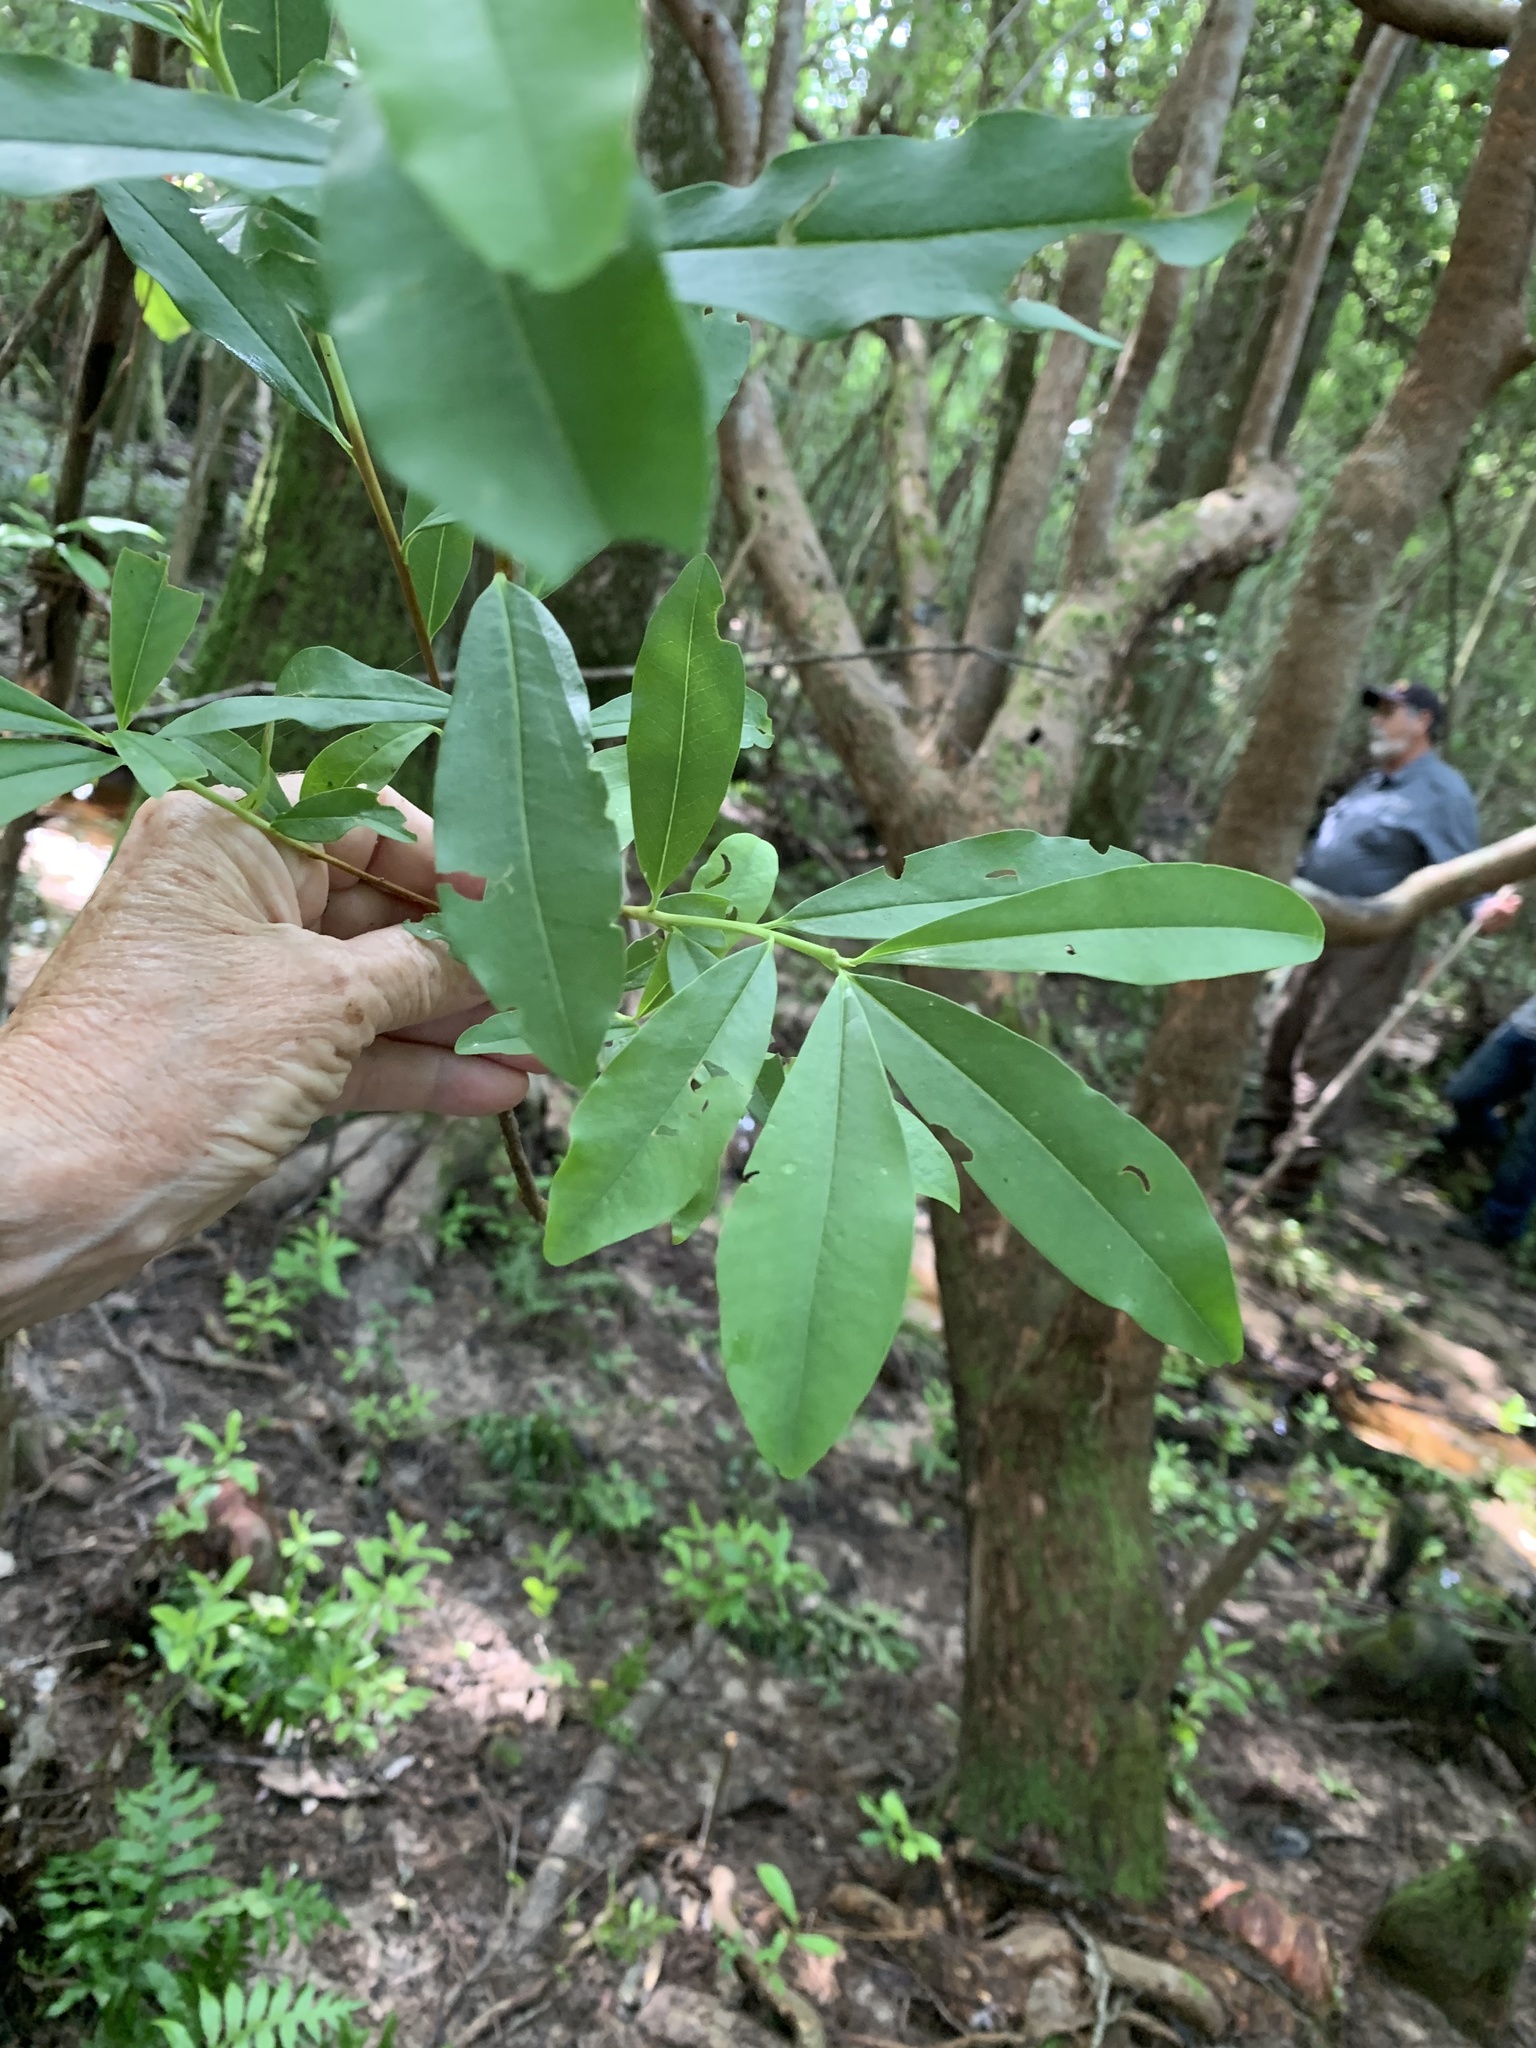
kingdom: Plantae
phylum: Tracheophyta
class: Magnoliopsida
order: Ericales
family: Cyrillaceae
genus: Cyrilla
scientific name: Cyrilla racemiflora
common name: Black titi
